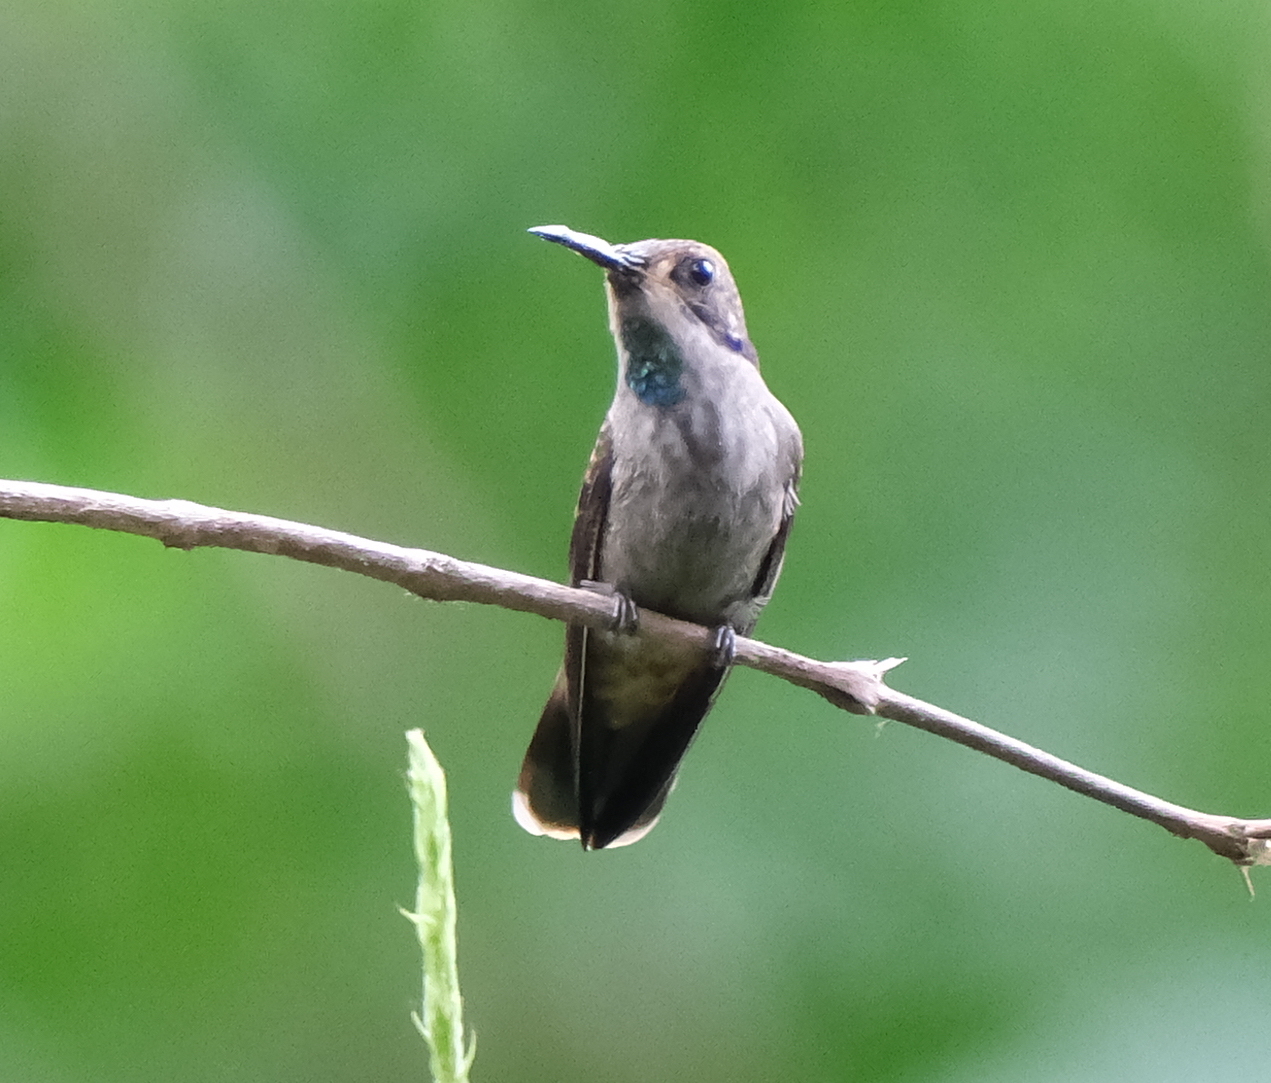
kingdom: Animalia
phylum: Chordata
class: Aves
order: Apodiformes
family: Trochilidae
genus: Colibri
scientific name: Colibri delphinae
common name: Brown violetear
